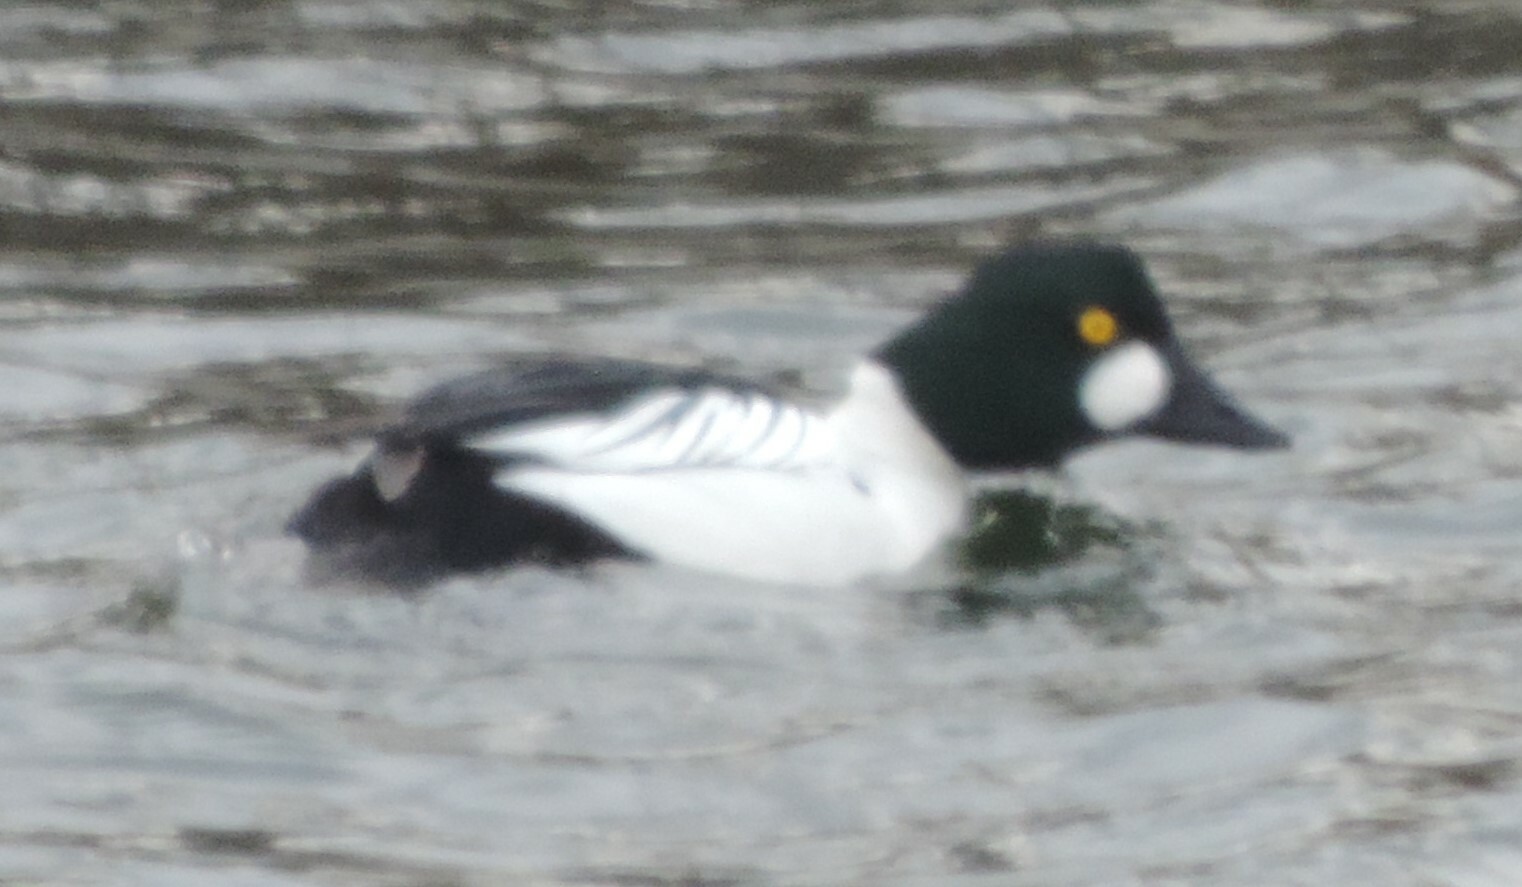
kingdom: Animalia
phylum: Chordata
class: Aves
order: Anseriformes
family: Anatidae
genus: Bucephala
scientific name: Bucephala clangula
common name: Common goldeneye
